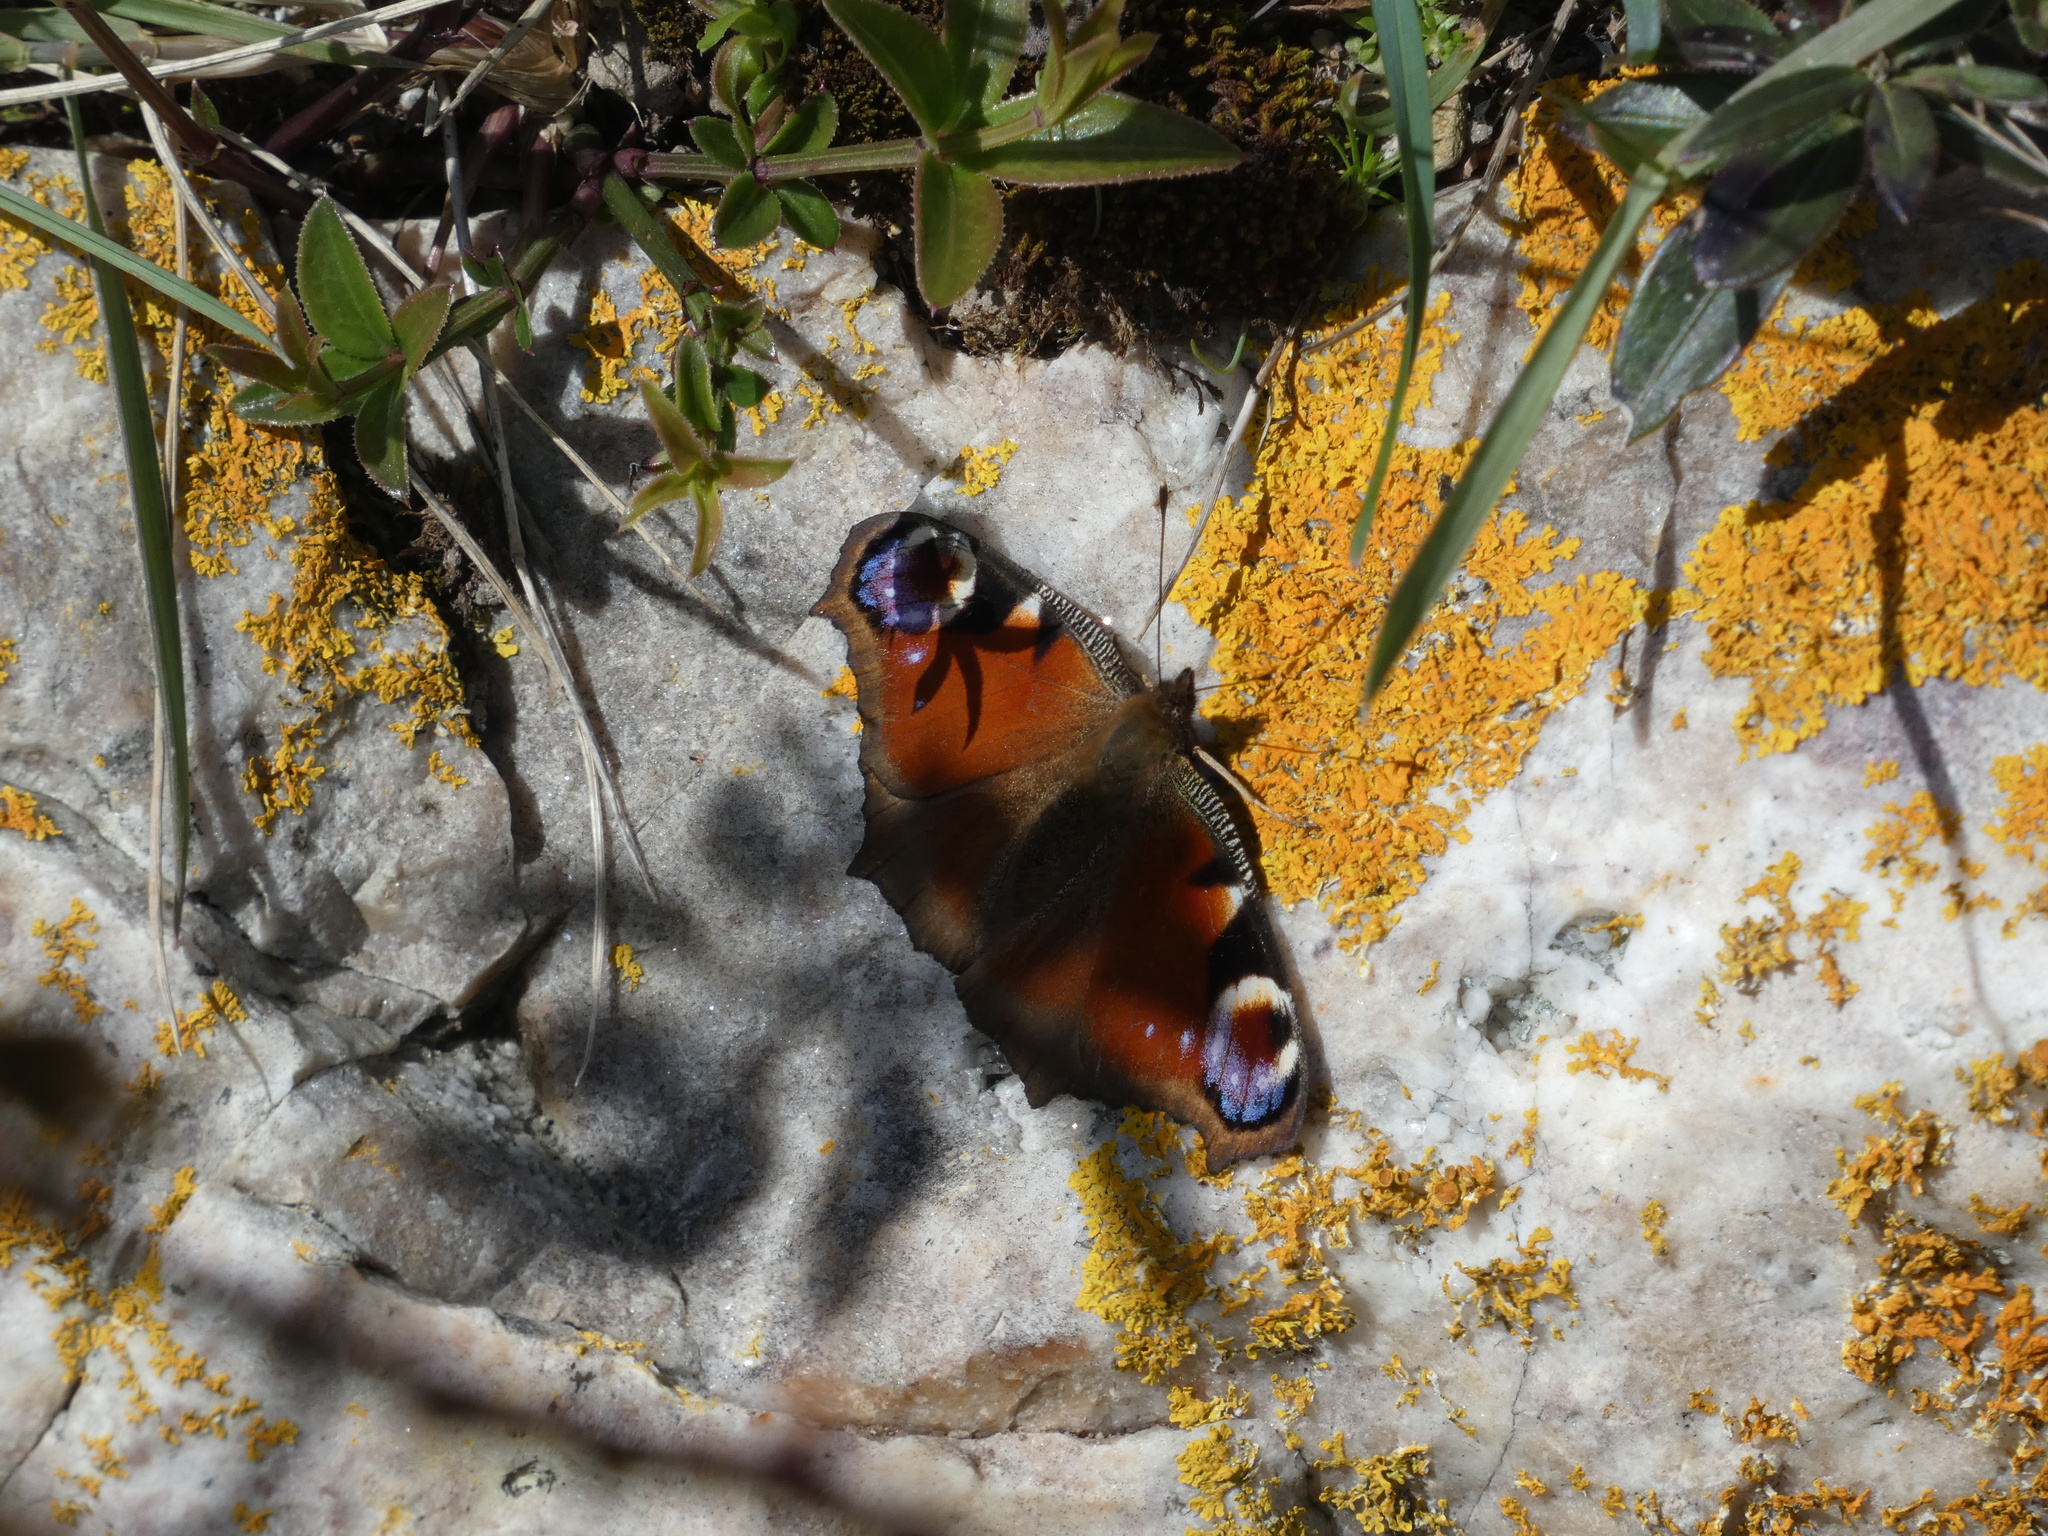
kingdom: Animalia
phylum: Arthropoda
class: Insecta
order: Lepidoptera
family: Nymphalidae
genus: Aglais
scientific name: Aglais io
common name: Peacock
